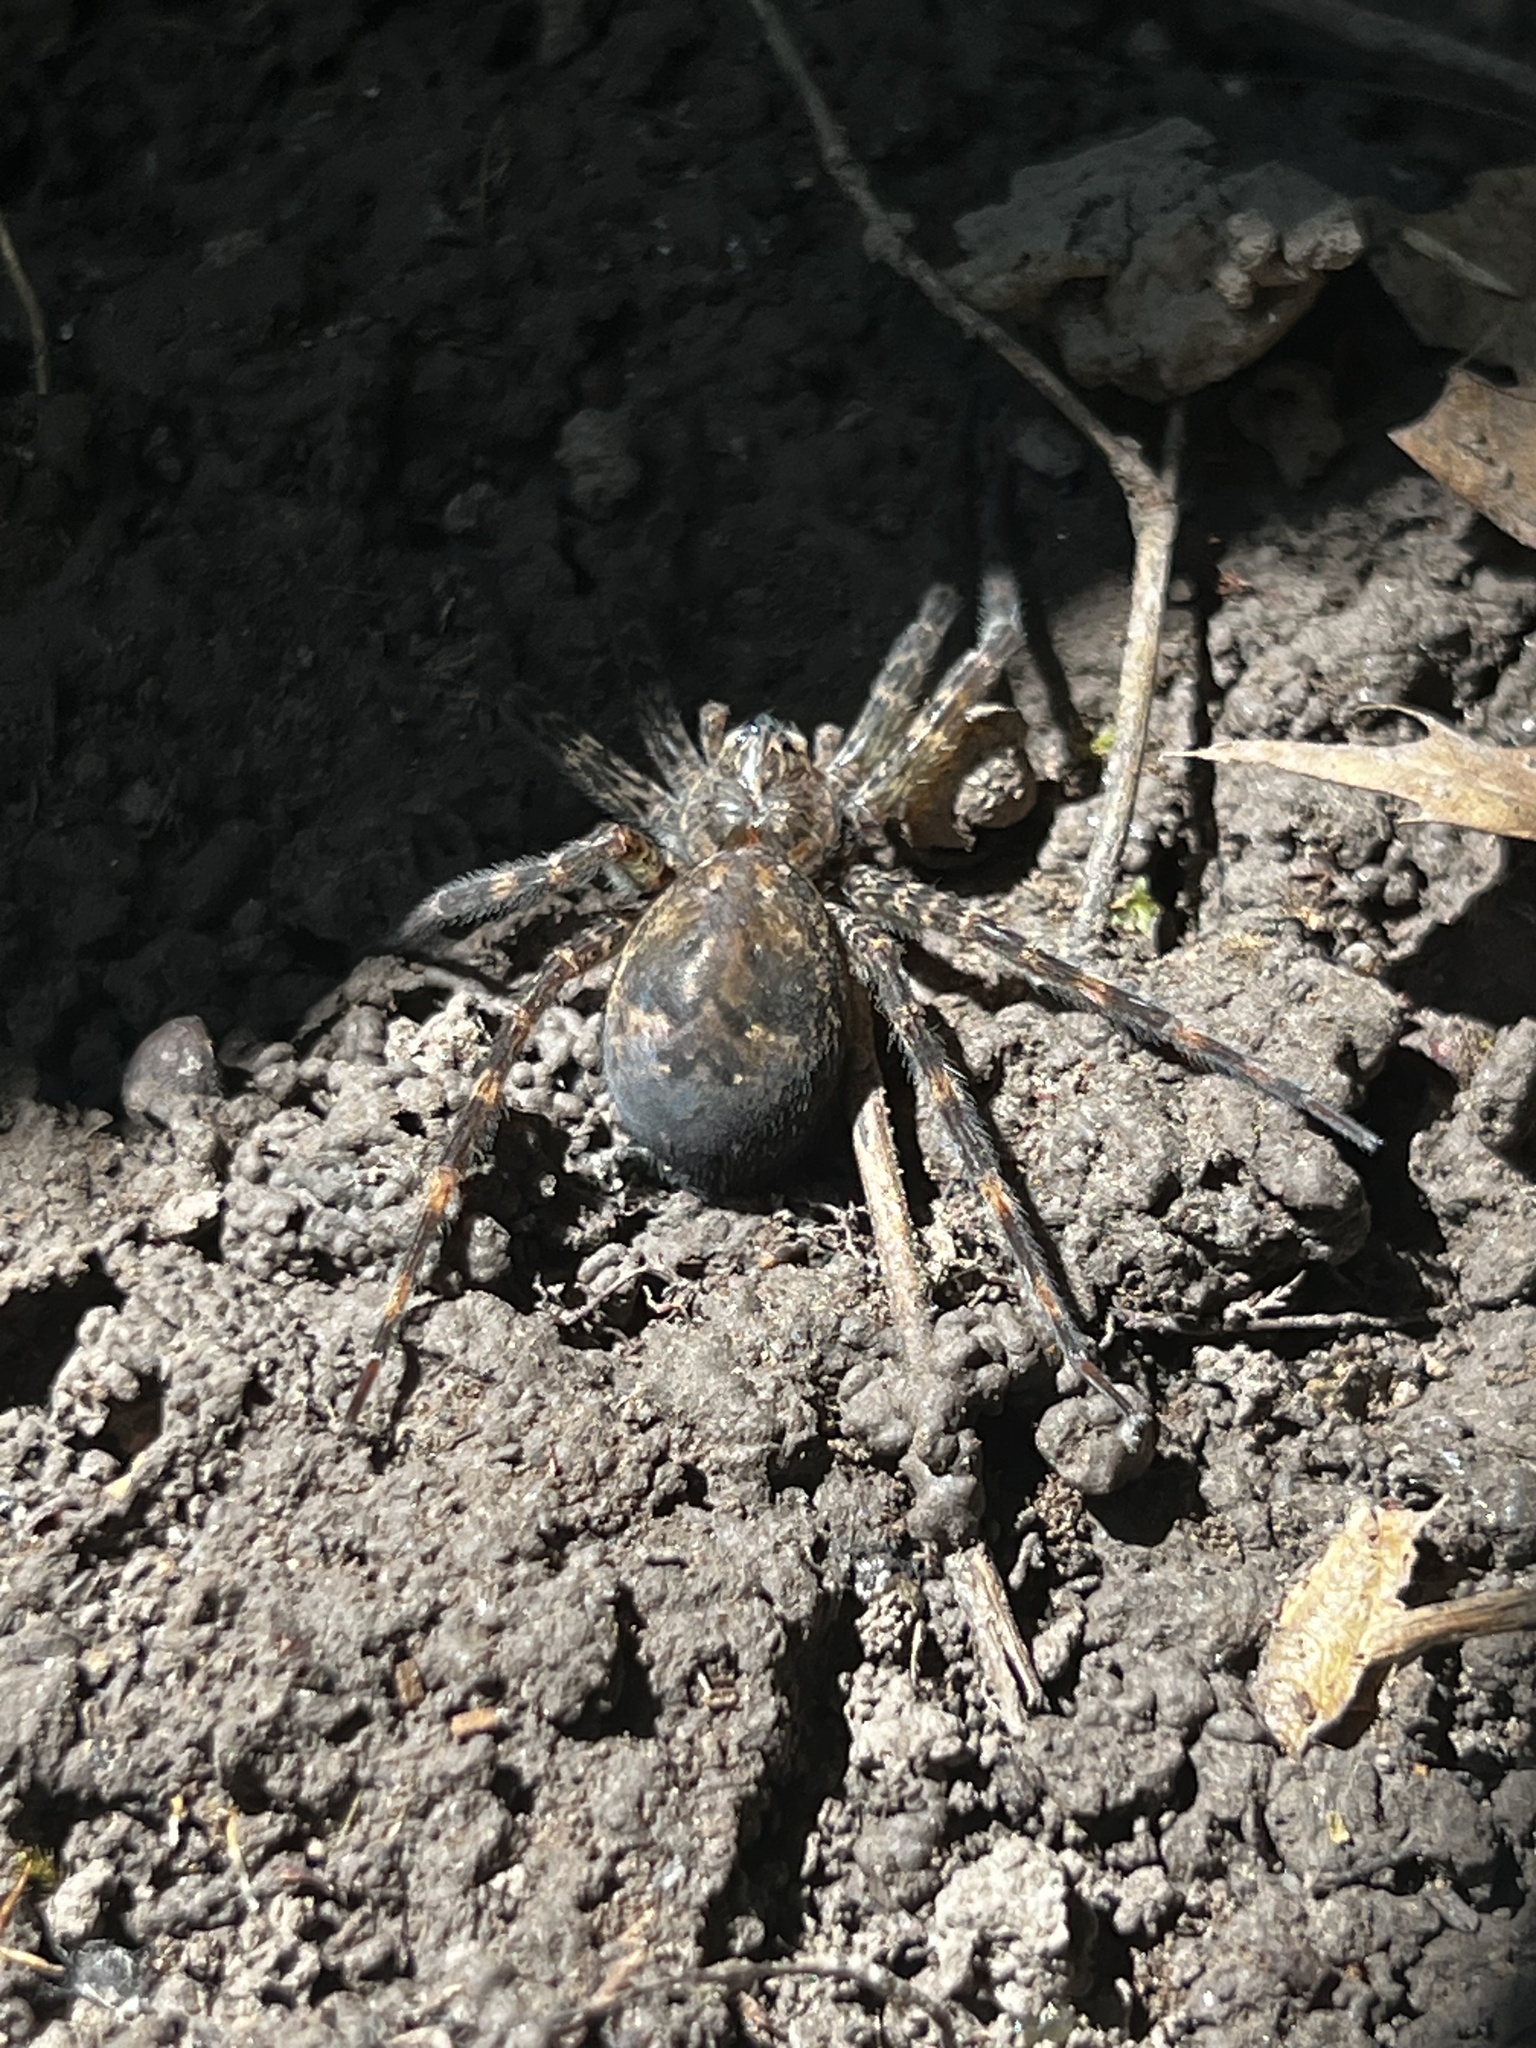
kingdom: Animalia
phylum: Arthropoda
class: Arachnida
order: Araneae
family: Pisauridae
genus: Dolomedes
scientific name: Dolomedes tenebrosus
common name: Dark fishing spider
